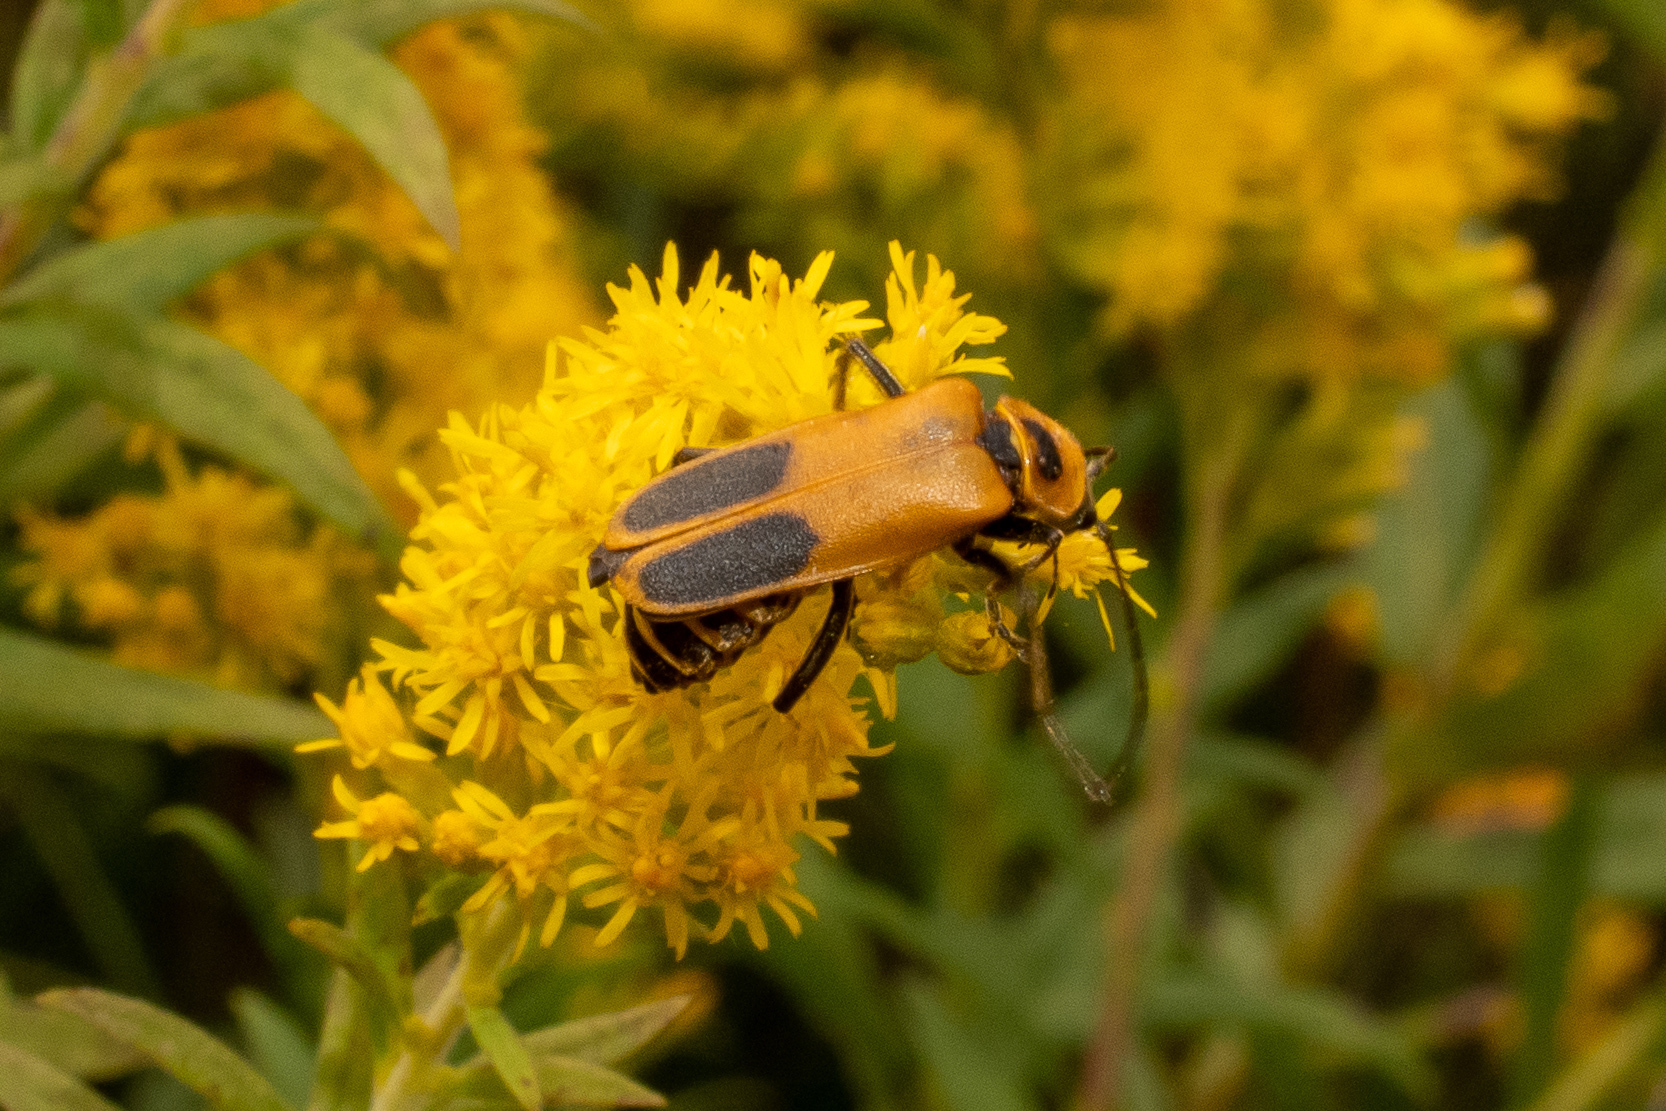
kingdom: Animalia
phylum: Arthropoda
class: Insecta
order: Coleoptera
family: Cantharidae
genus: Chauliognathus
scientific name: Chauliognathus pensylvanicus
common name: Goldenrod soldier beetle
